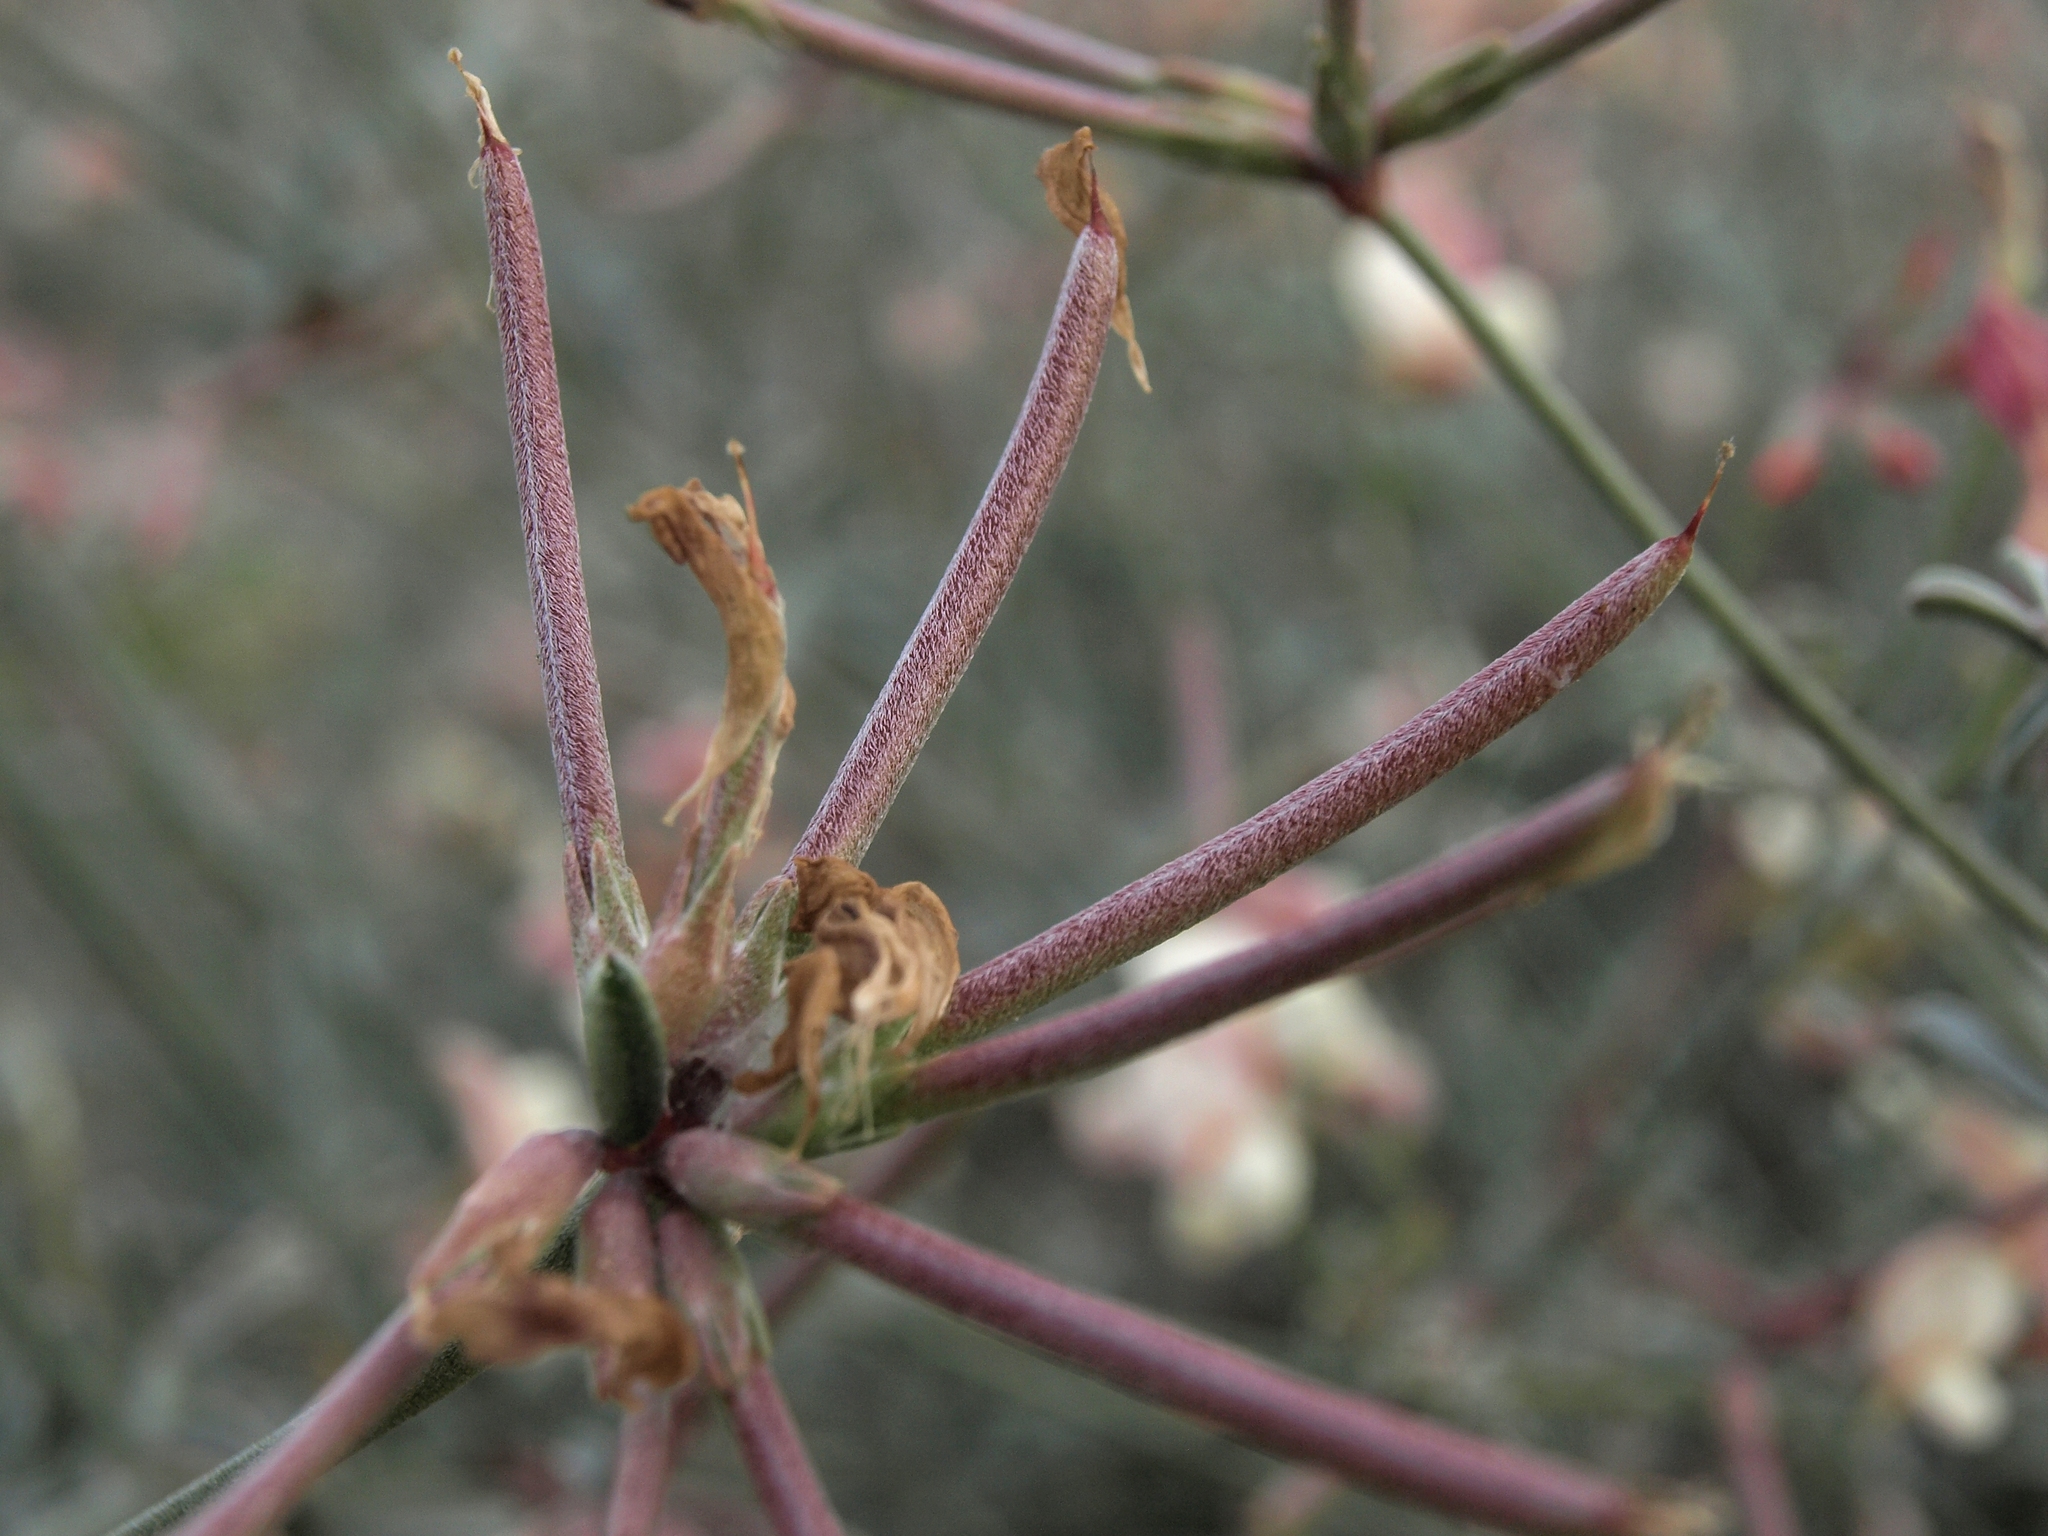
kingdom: Plantae
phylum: Tracheophyta
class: Magnoliopsida
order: Fabales
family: Fabaceae
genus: Acmispon
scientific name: Acmispon niveus
